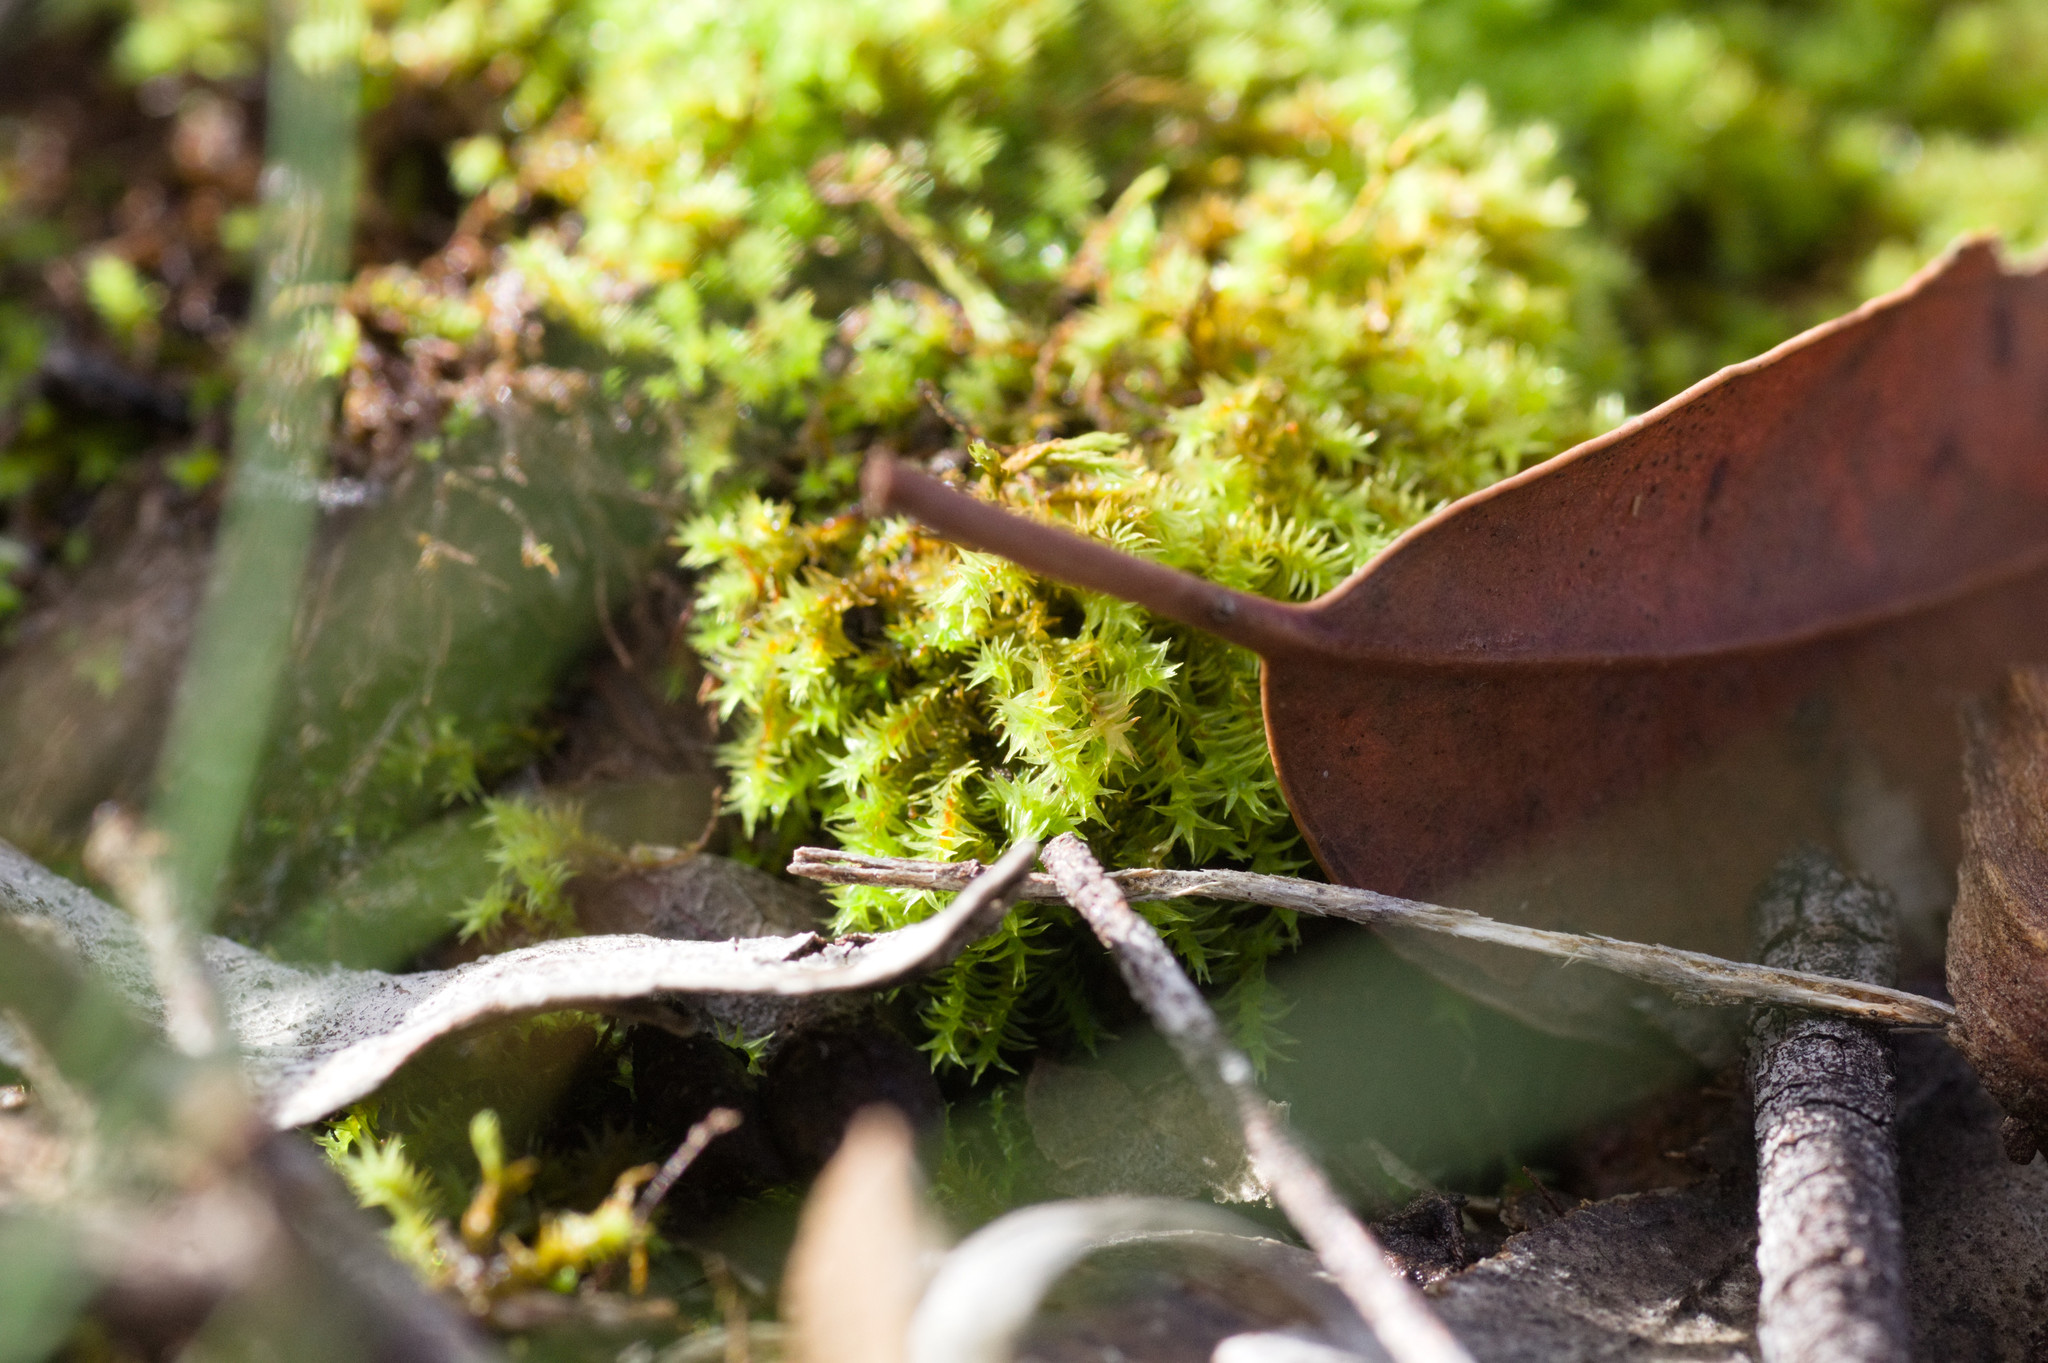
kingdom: Plantae
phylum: Bryophyta
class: Bryopsida
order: Pottiales
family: Pottiaceae
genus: Triquetrella
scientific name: Triquetrella papillata
